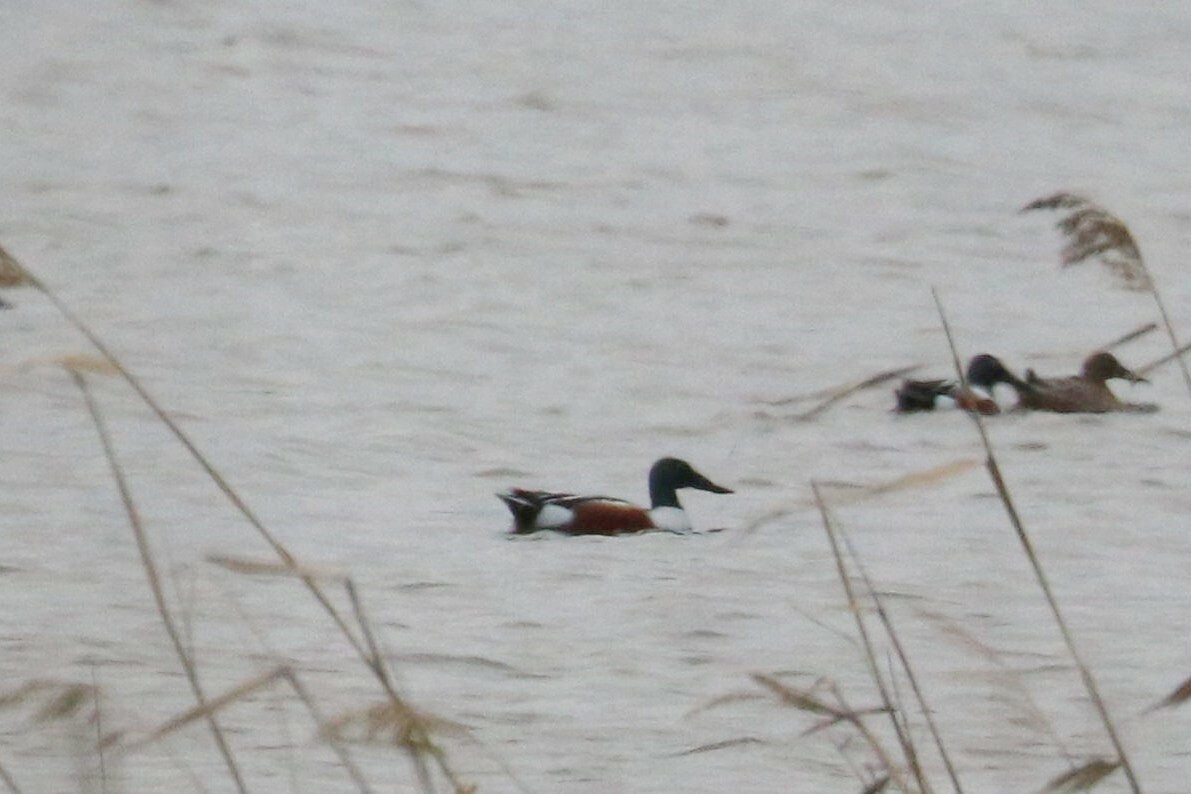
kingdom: Animalia
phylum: Chordata
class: Aves
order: Anseriformes
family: Anatidae
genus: Spatula
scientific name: Spatula clypeata
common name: Northern shoveler
